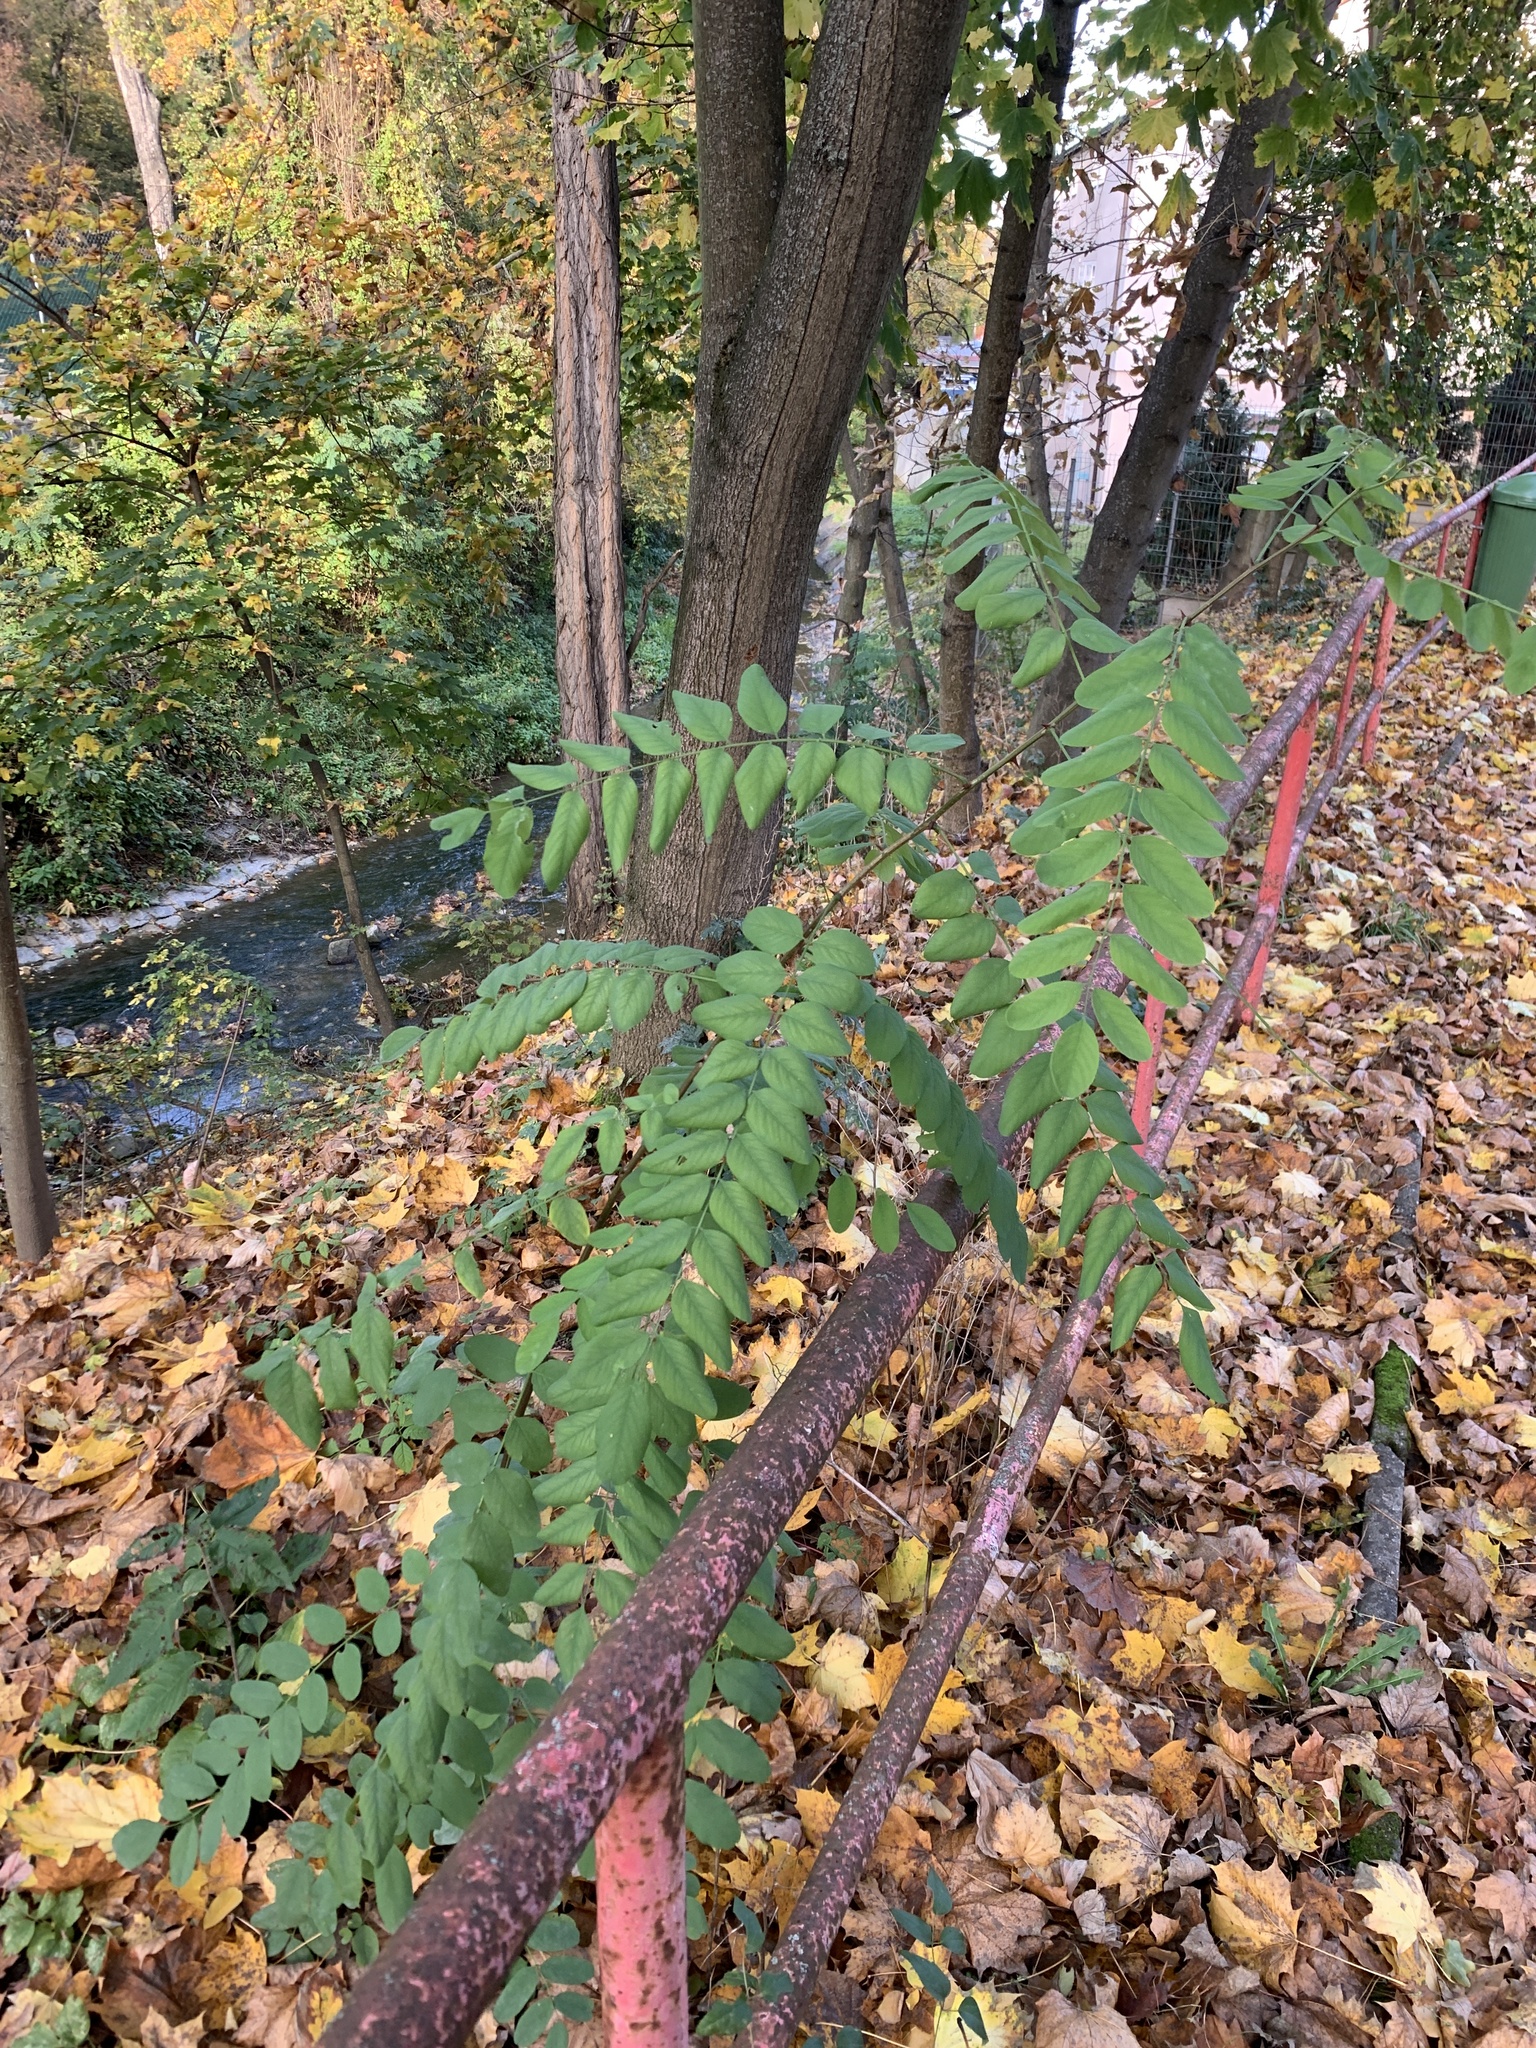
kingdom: Plantae
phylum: Tracheophyta
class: Magnoliopsida
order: Fabales
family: Fabaceae
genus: Robinia
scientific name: Robinia pseudoacacia
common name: Black locust
